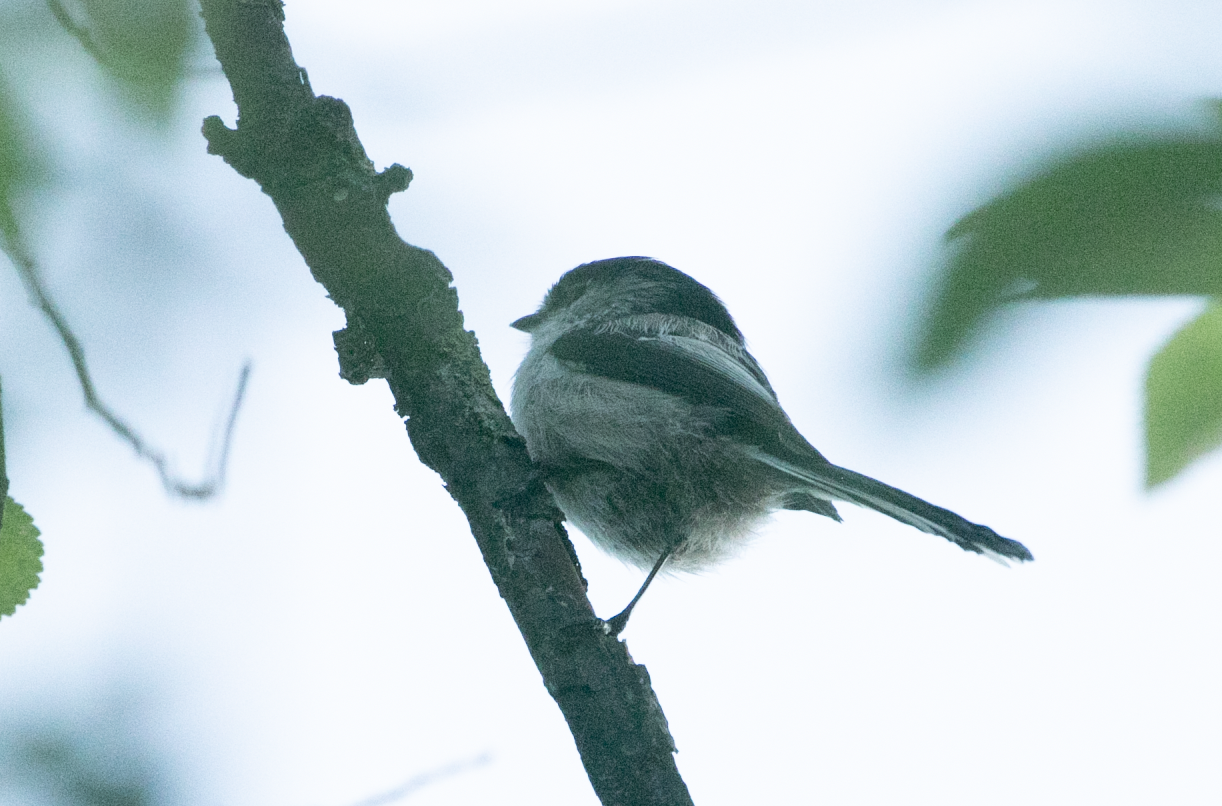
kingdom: Animalia
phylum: Chordata
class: Aves
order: Passeriformes
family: Aegithalidae
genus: Aegithalos
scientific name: Aegithalos caudatus
